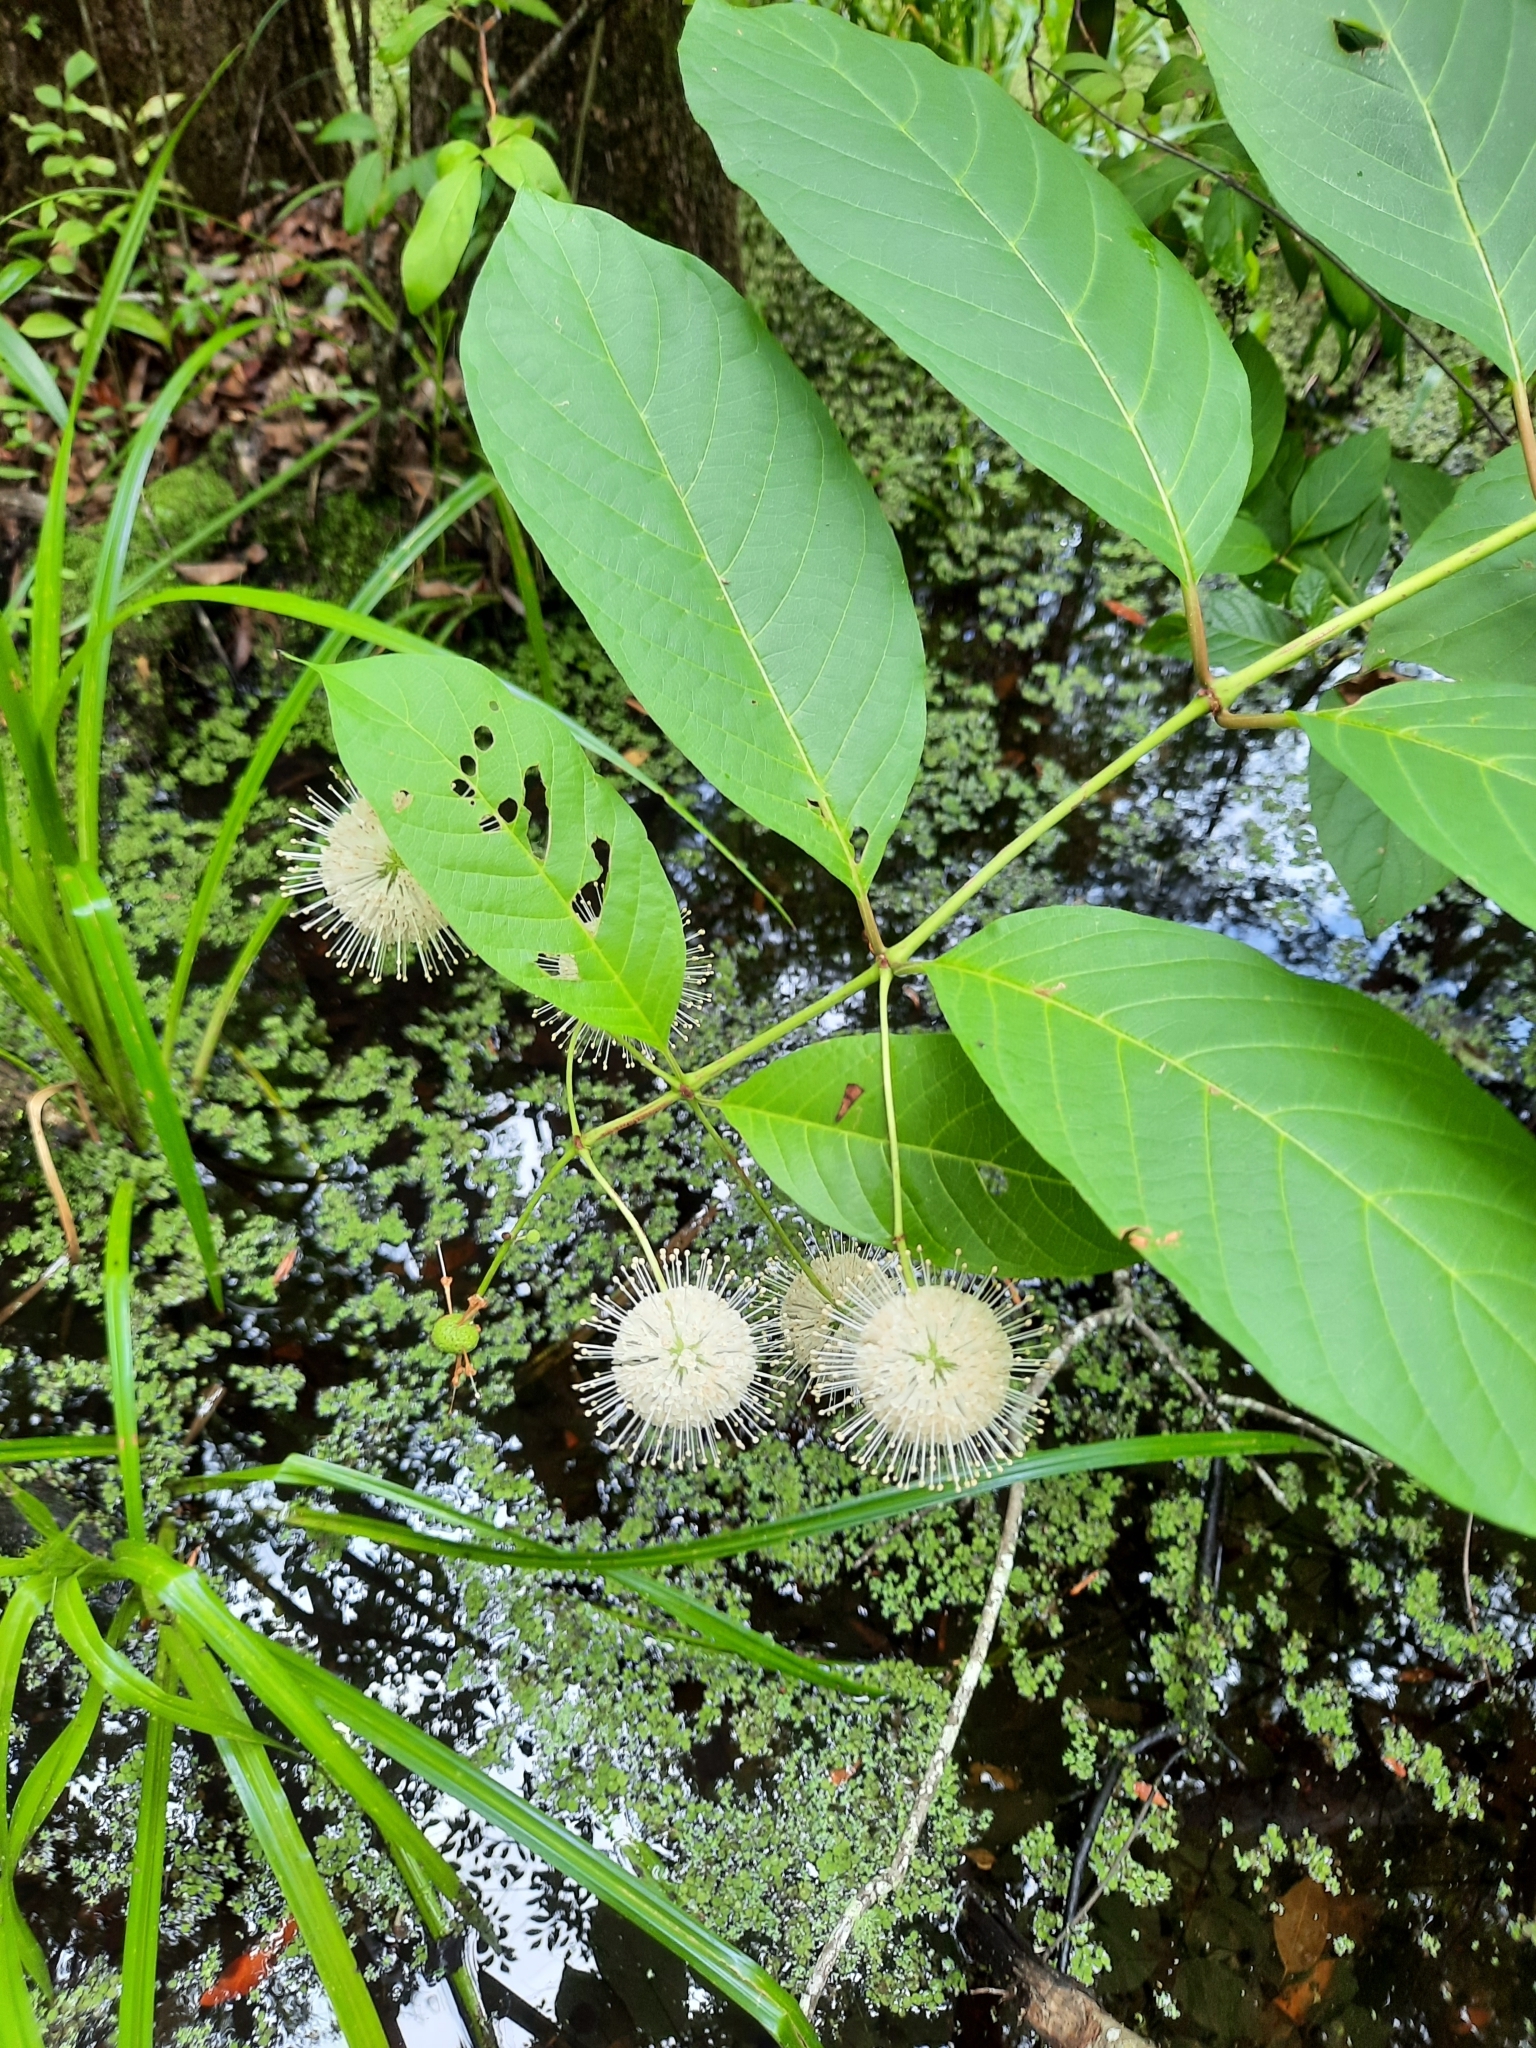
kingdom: Plantae
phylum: Tracheophyta
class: Magnoliopsida
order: Gentianales
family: Rubiaceae
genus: Cephalanthus
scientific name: Cephalanthus occidentalis
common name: Button-willow
